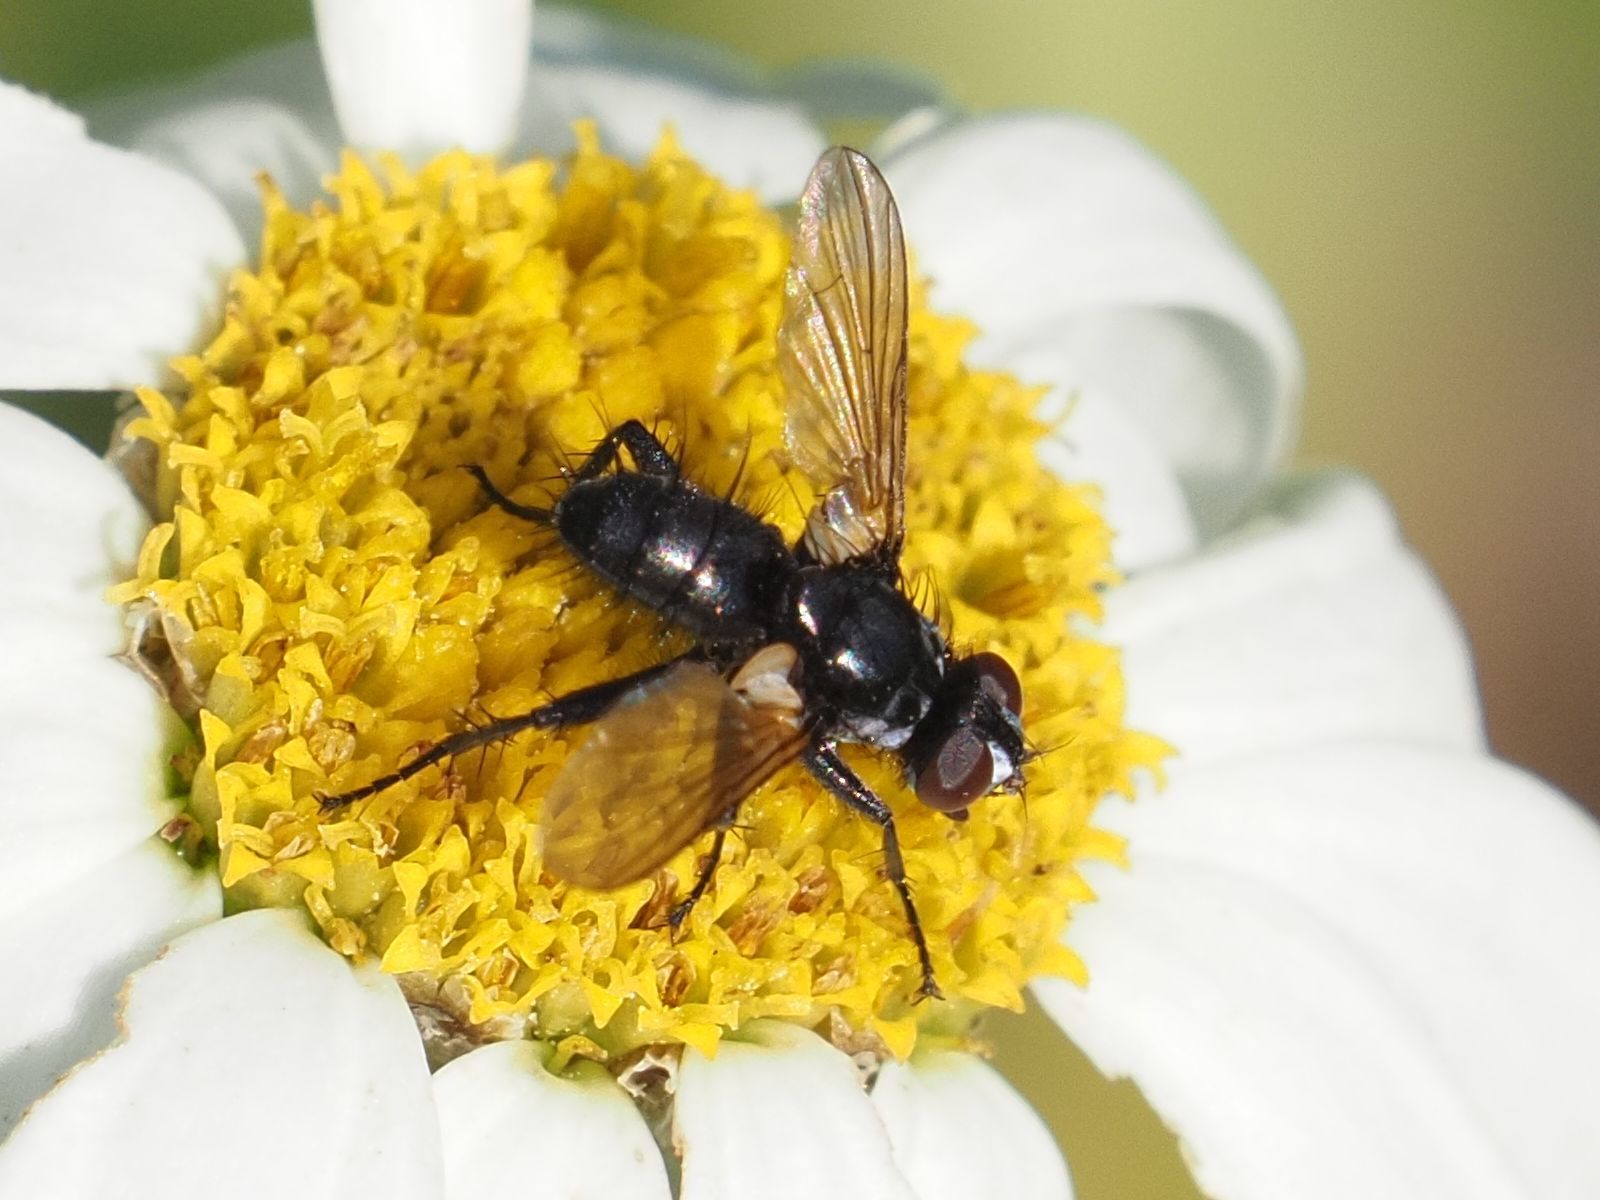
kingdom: Animalia
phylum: Arthropoda
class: Insecta
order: Diptera
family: Tachinidae
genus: Phania
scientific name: Phania funesta
